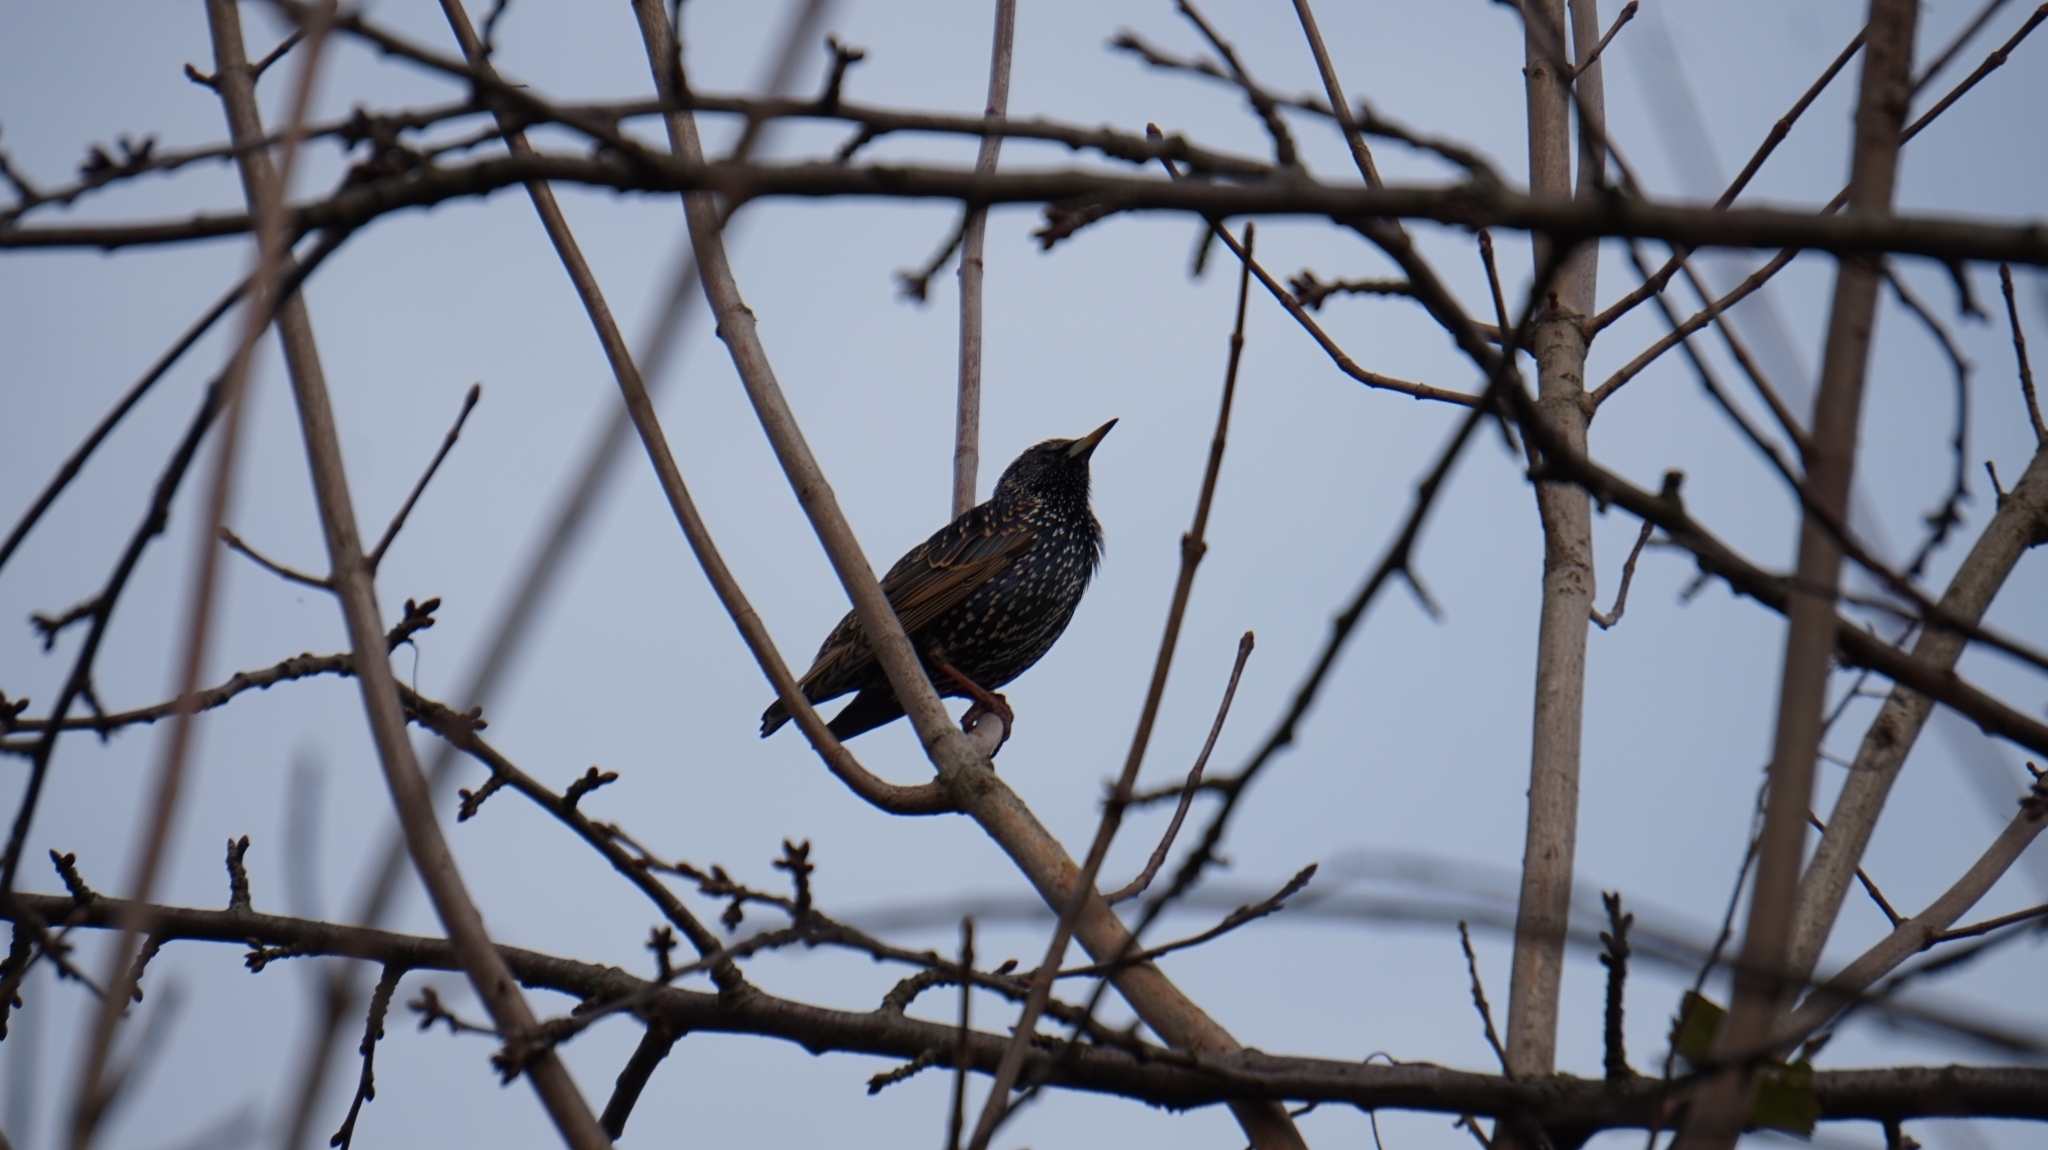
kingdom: Animalia
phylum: Chordata
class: Aves
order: Passeriformes
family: Sturnidae
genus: Sturnus
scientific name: Sturnus vulgaris
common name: Common starling
